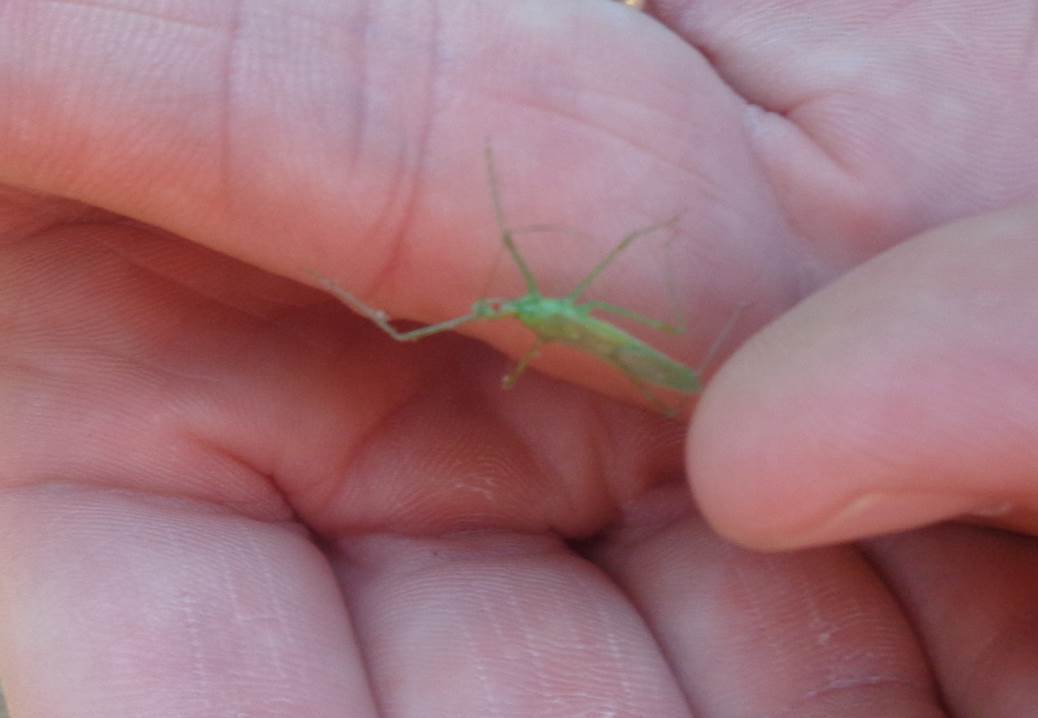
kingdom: Animalia
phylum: Arthropoda
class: Insecta
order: Hemiptera
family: Reduviidae
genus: Zelus
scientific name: Zelus luridus
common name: Pale green assassin bug
